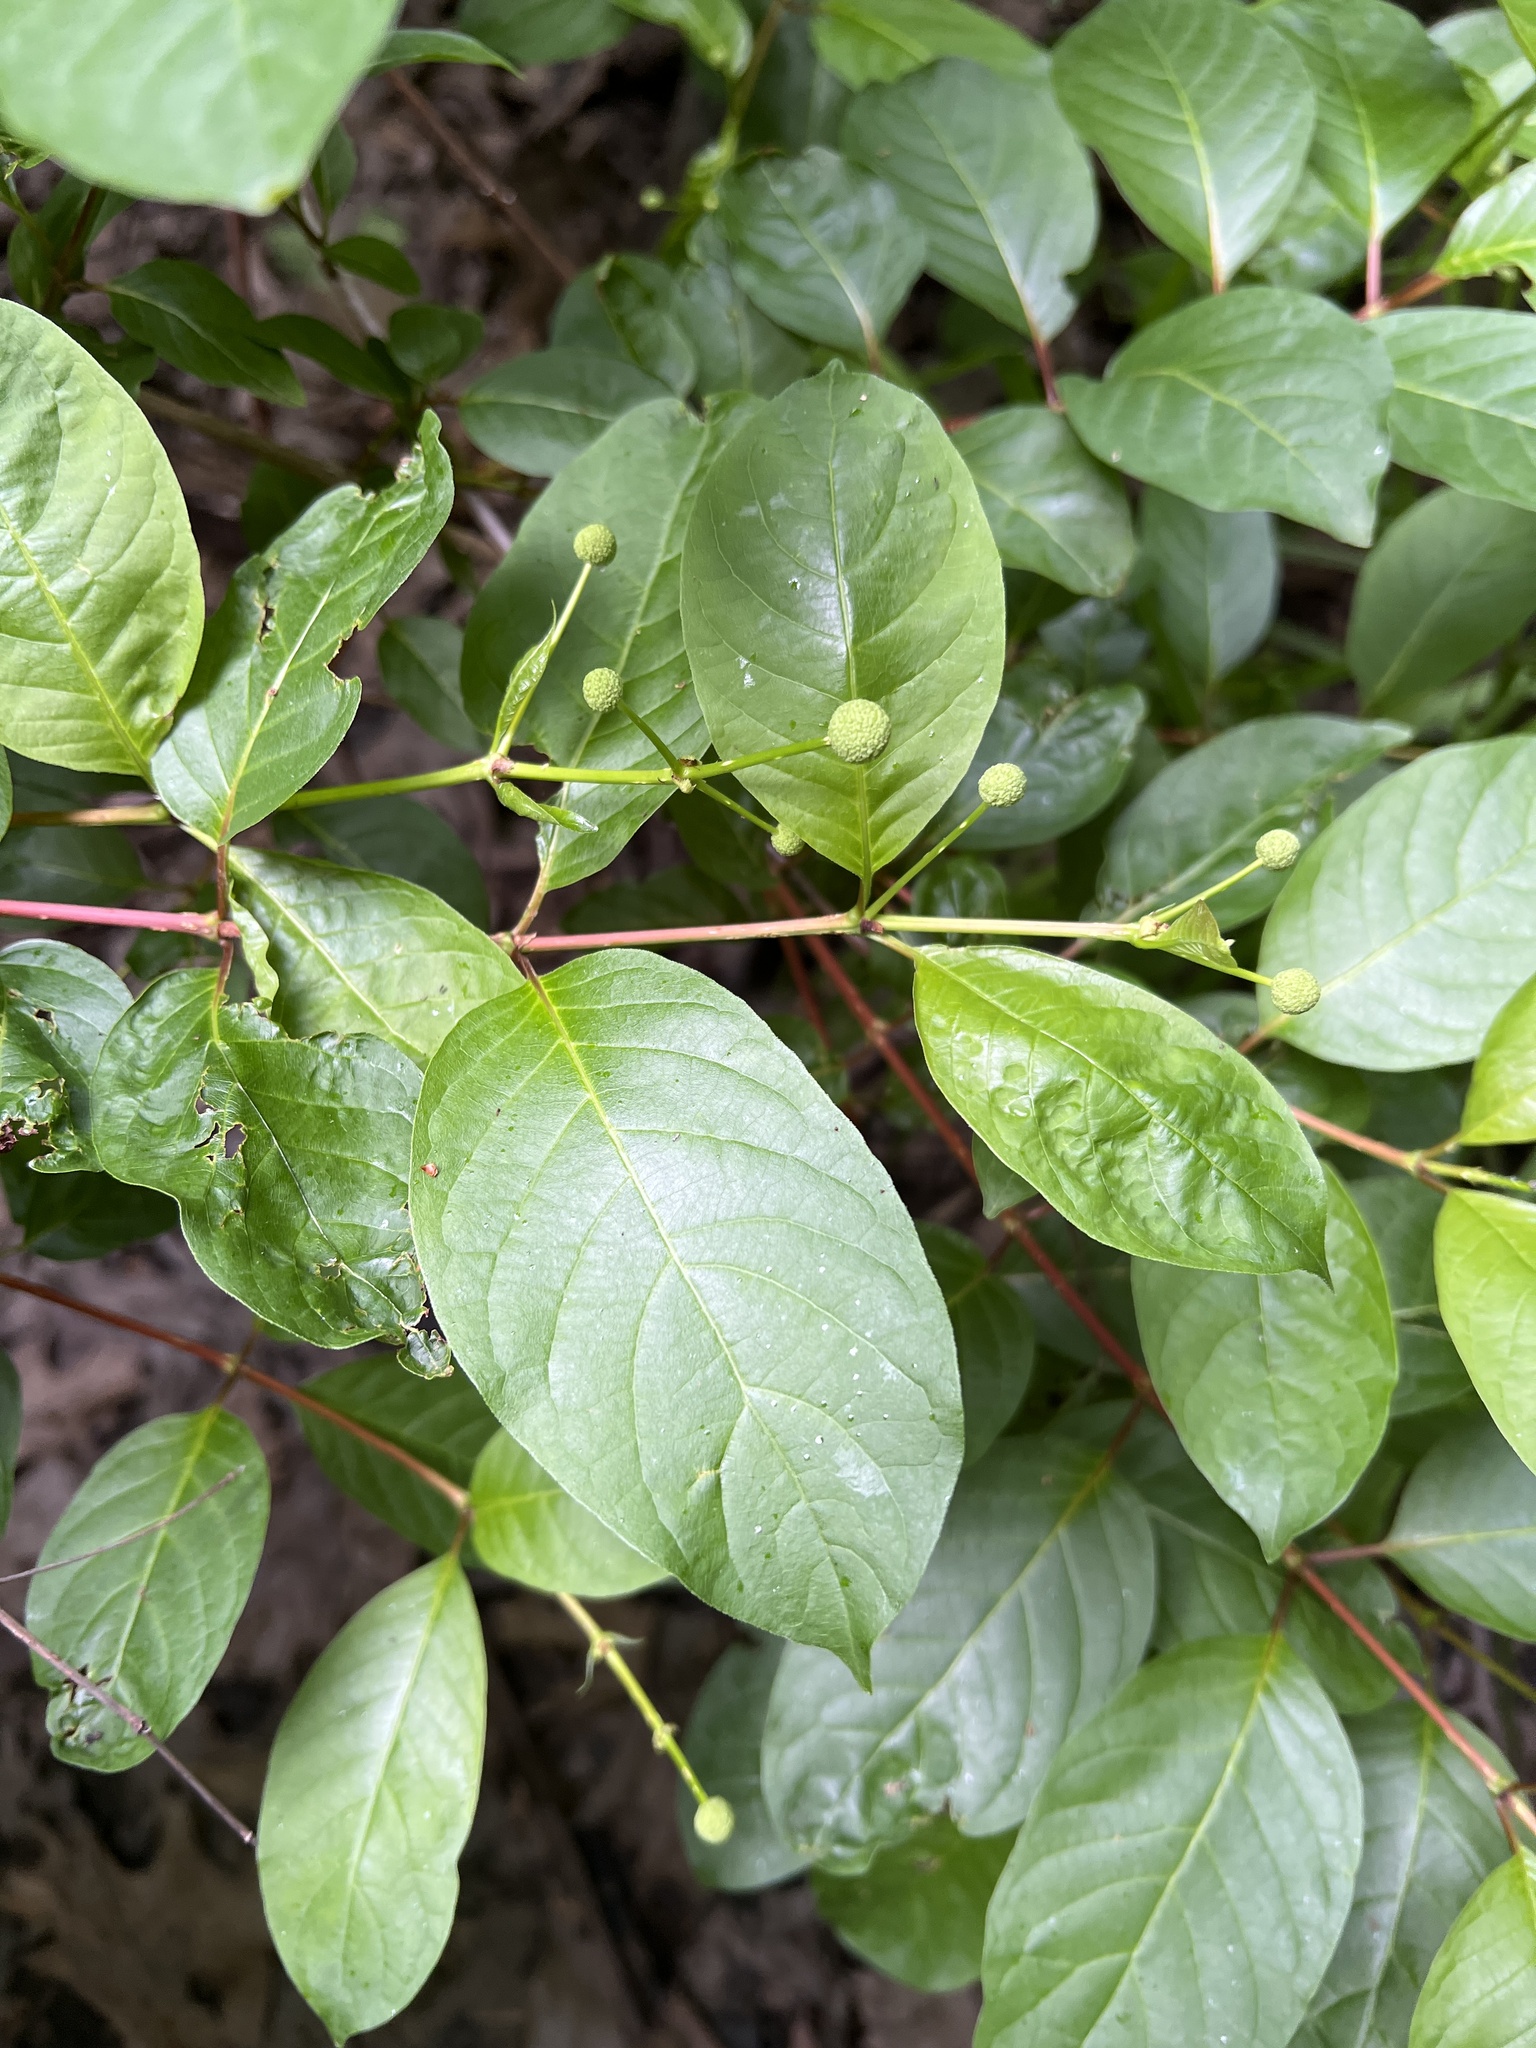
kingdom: Plantae
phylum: Tracheophyta
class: Magnoliopsida
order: Gentianales
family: Rubiaceae
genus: Cephalanthus
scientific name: Cephalanthus occidentalis
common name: Button-willow
